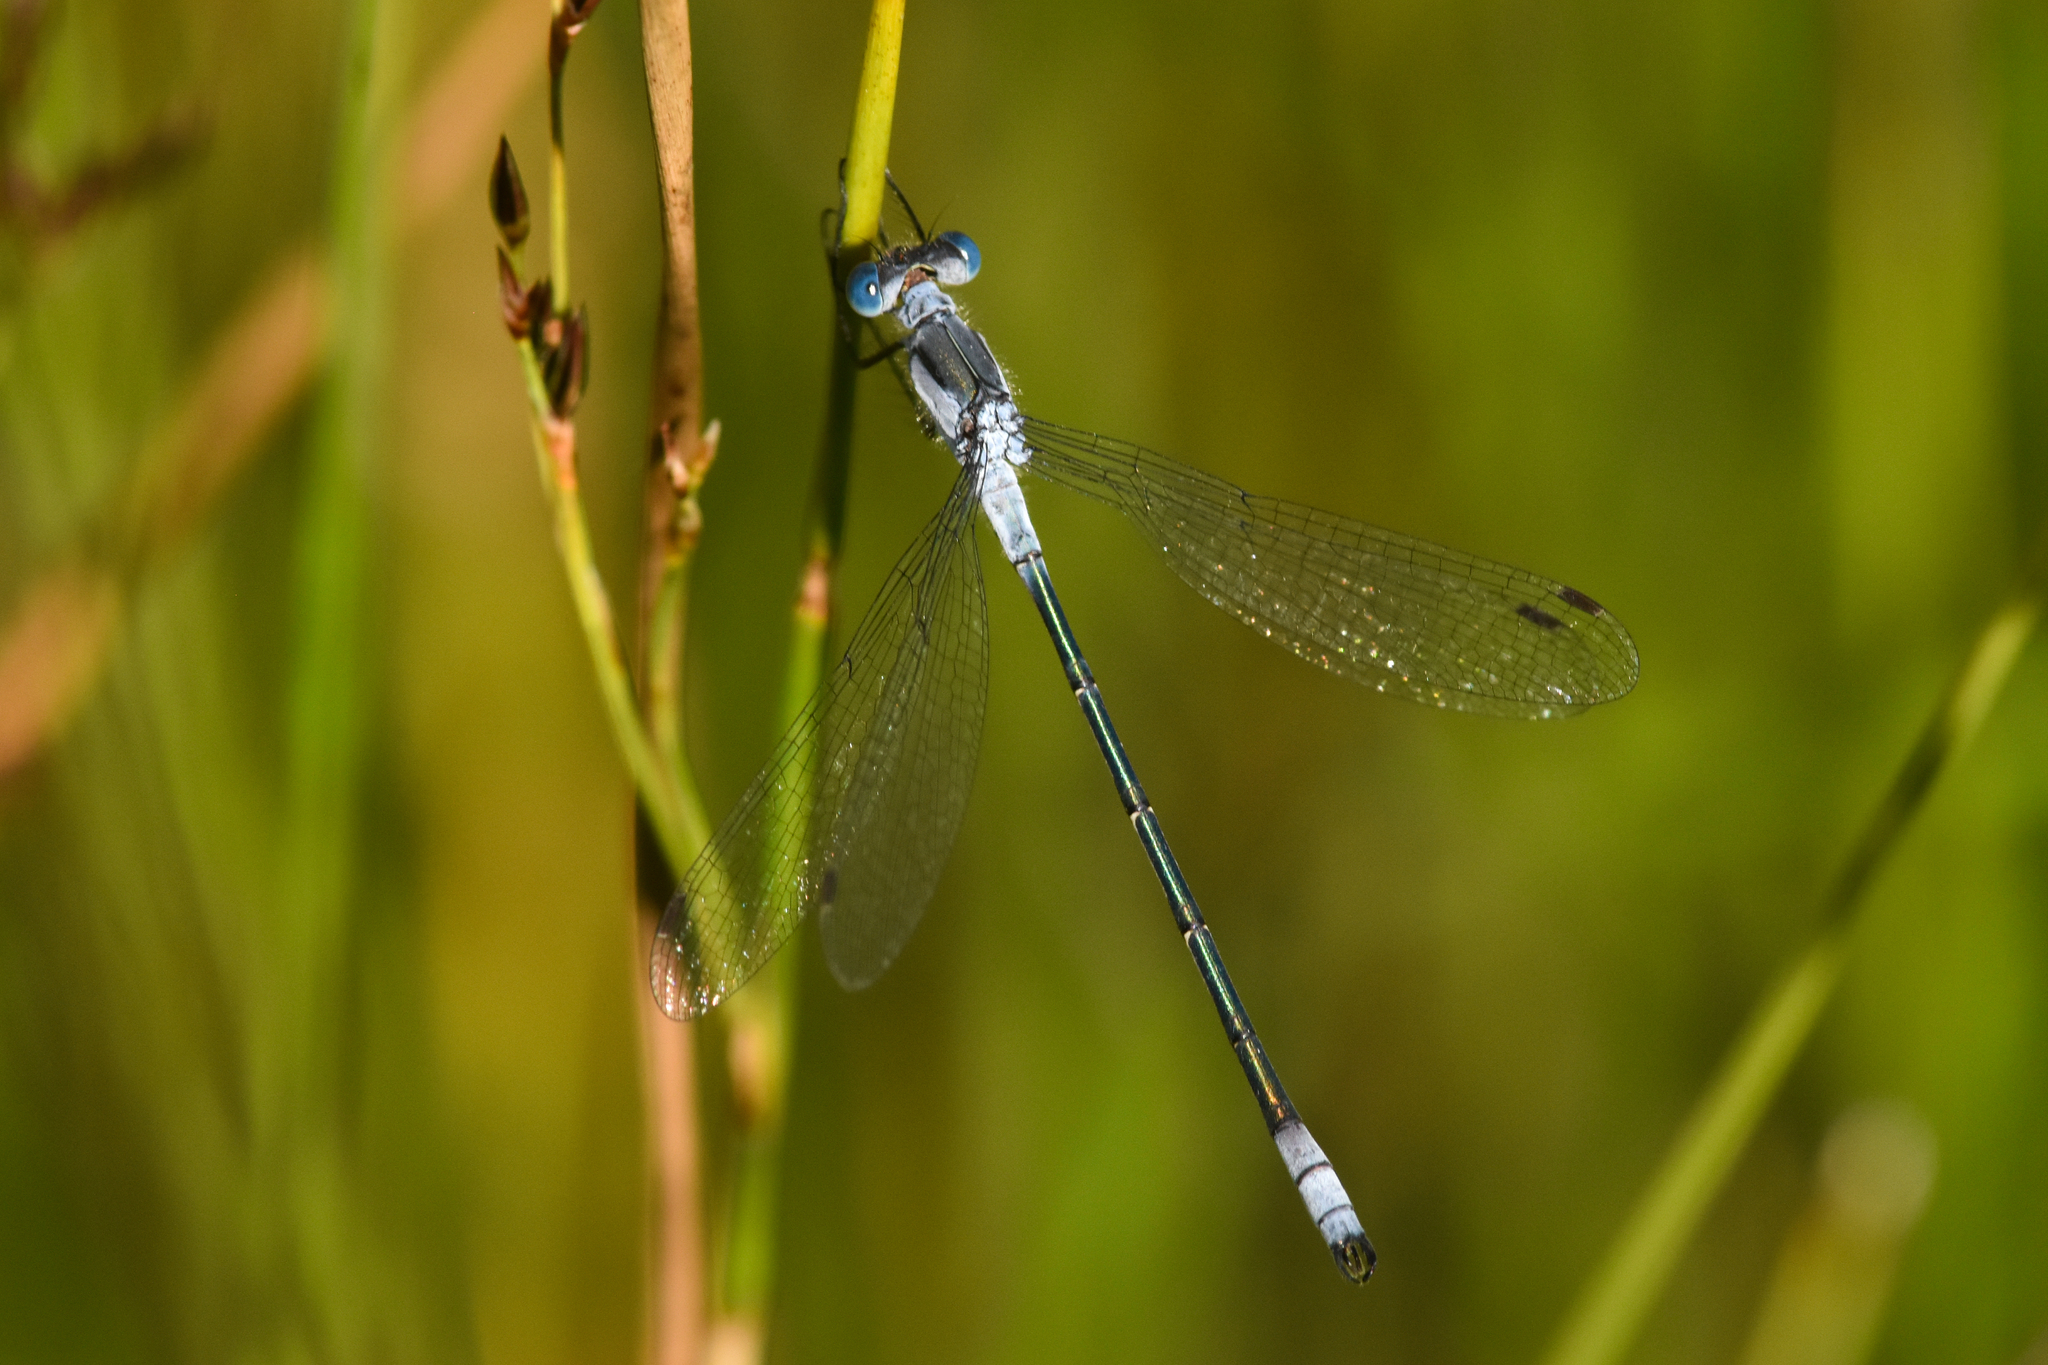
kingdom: Animalia
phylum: Arthropoda
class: Insecta
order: Odonata
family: Lestidae
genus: Lestes
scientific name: Lestes disjunctus
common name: Northern spreadwing
